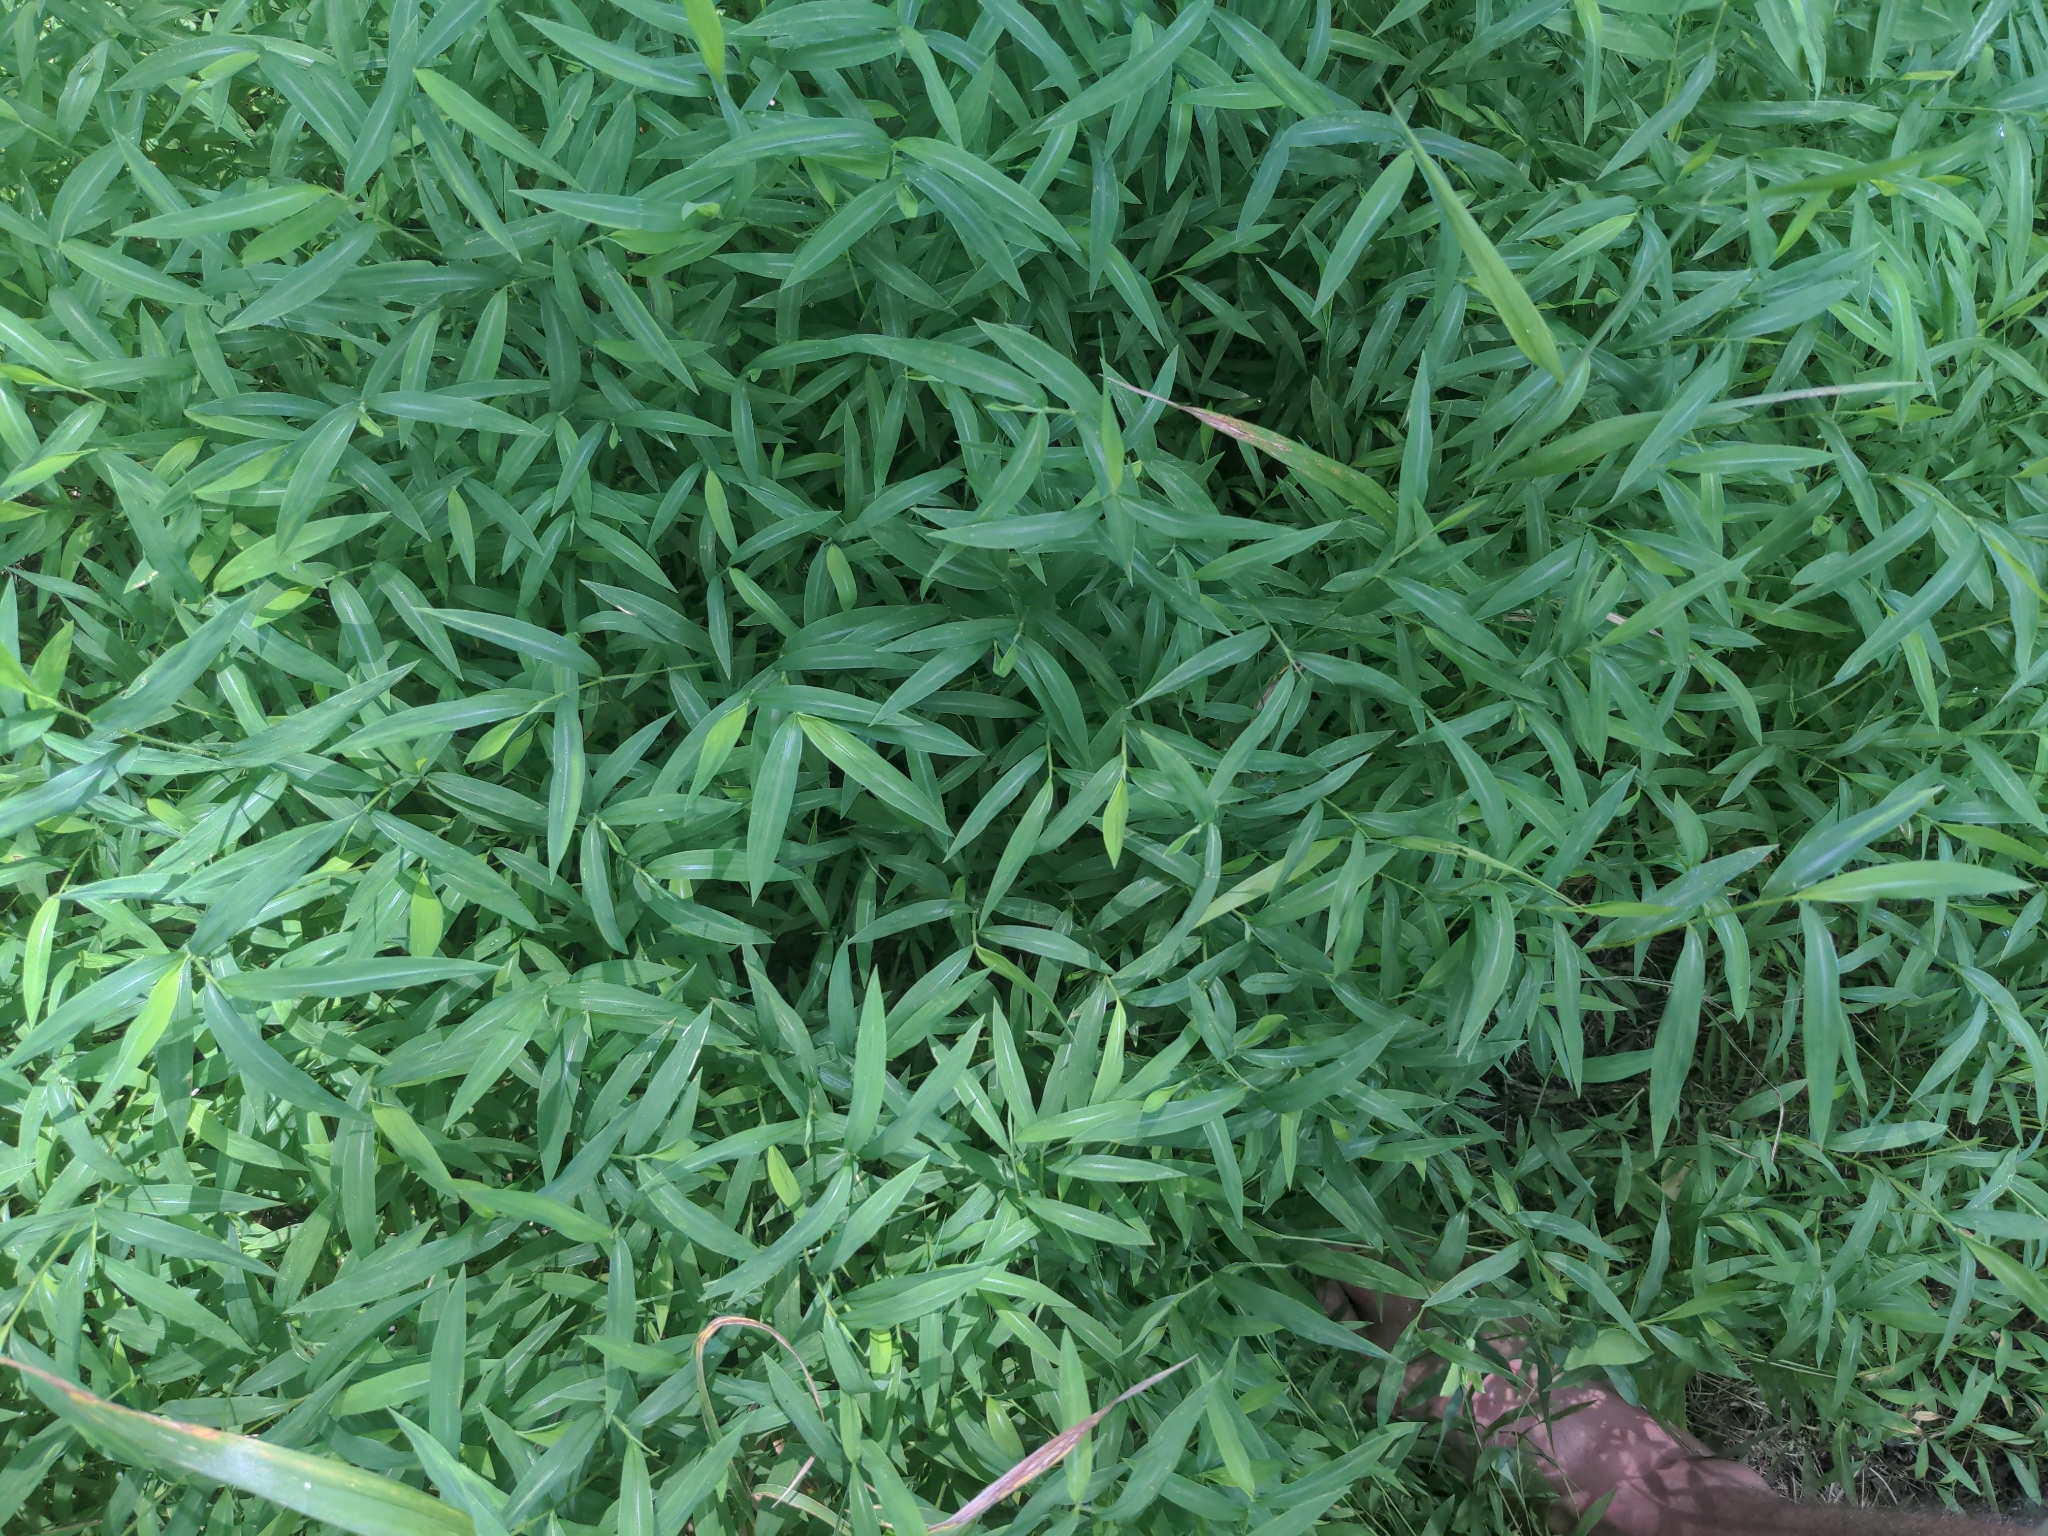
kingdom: Plantae
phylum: Tracheophyta
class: Liliopsida
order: Poales
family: Poaceae
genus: Microstegium
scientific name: Microstegium vimineum
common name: Japanese stiltgrass
